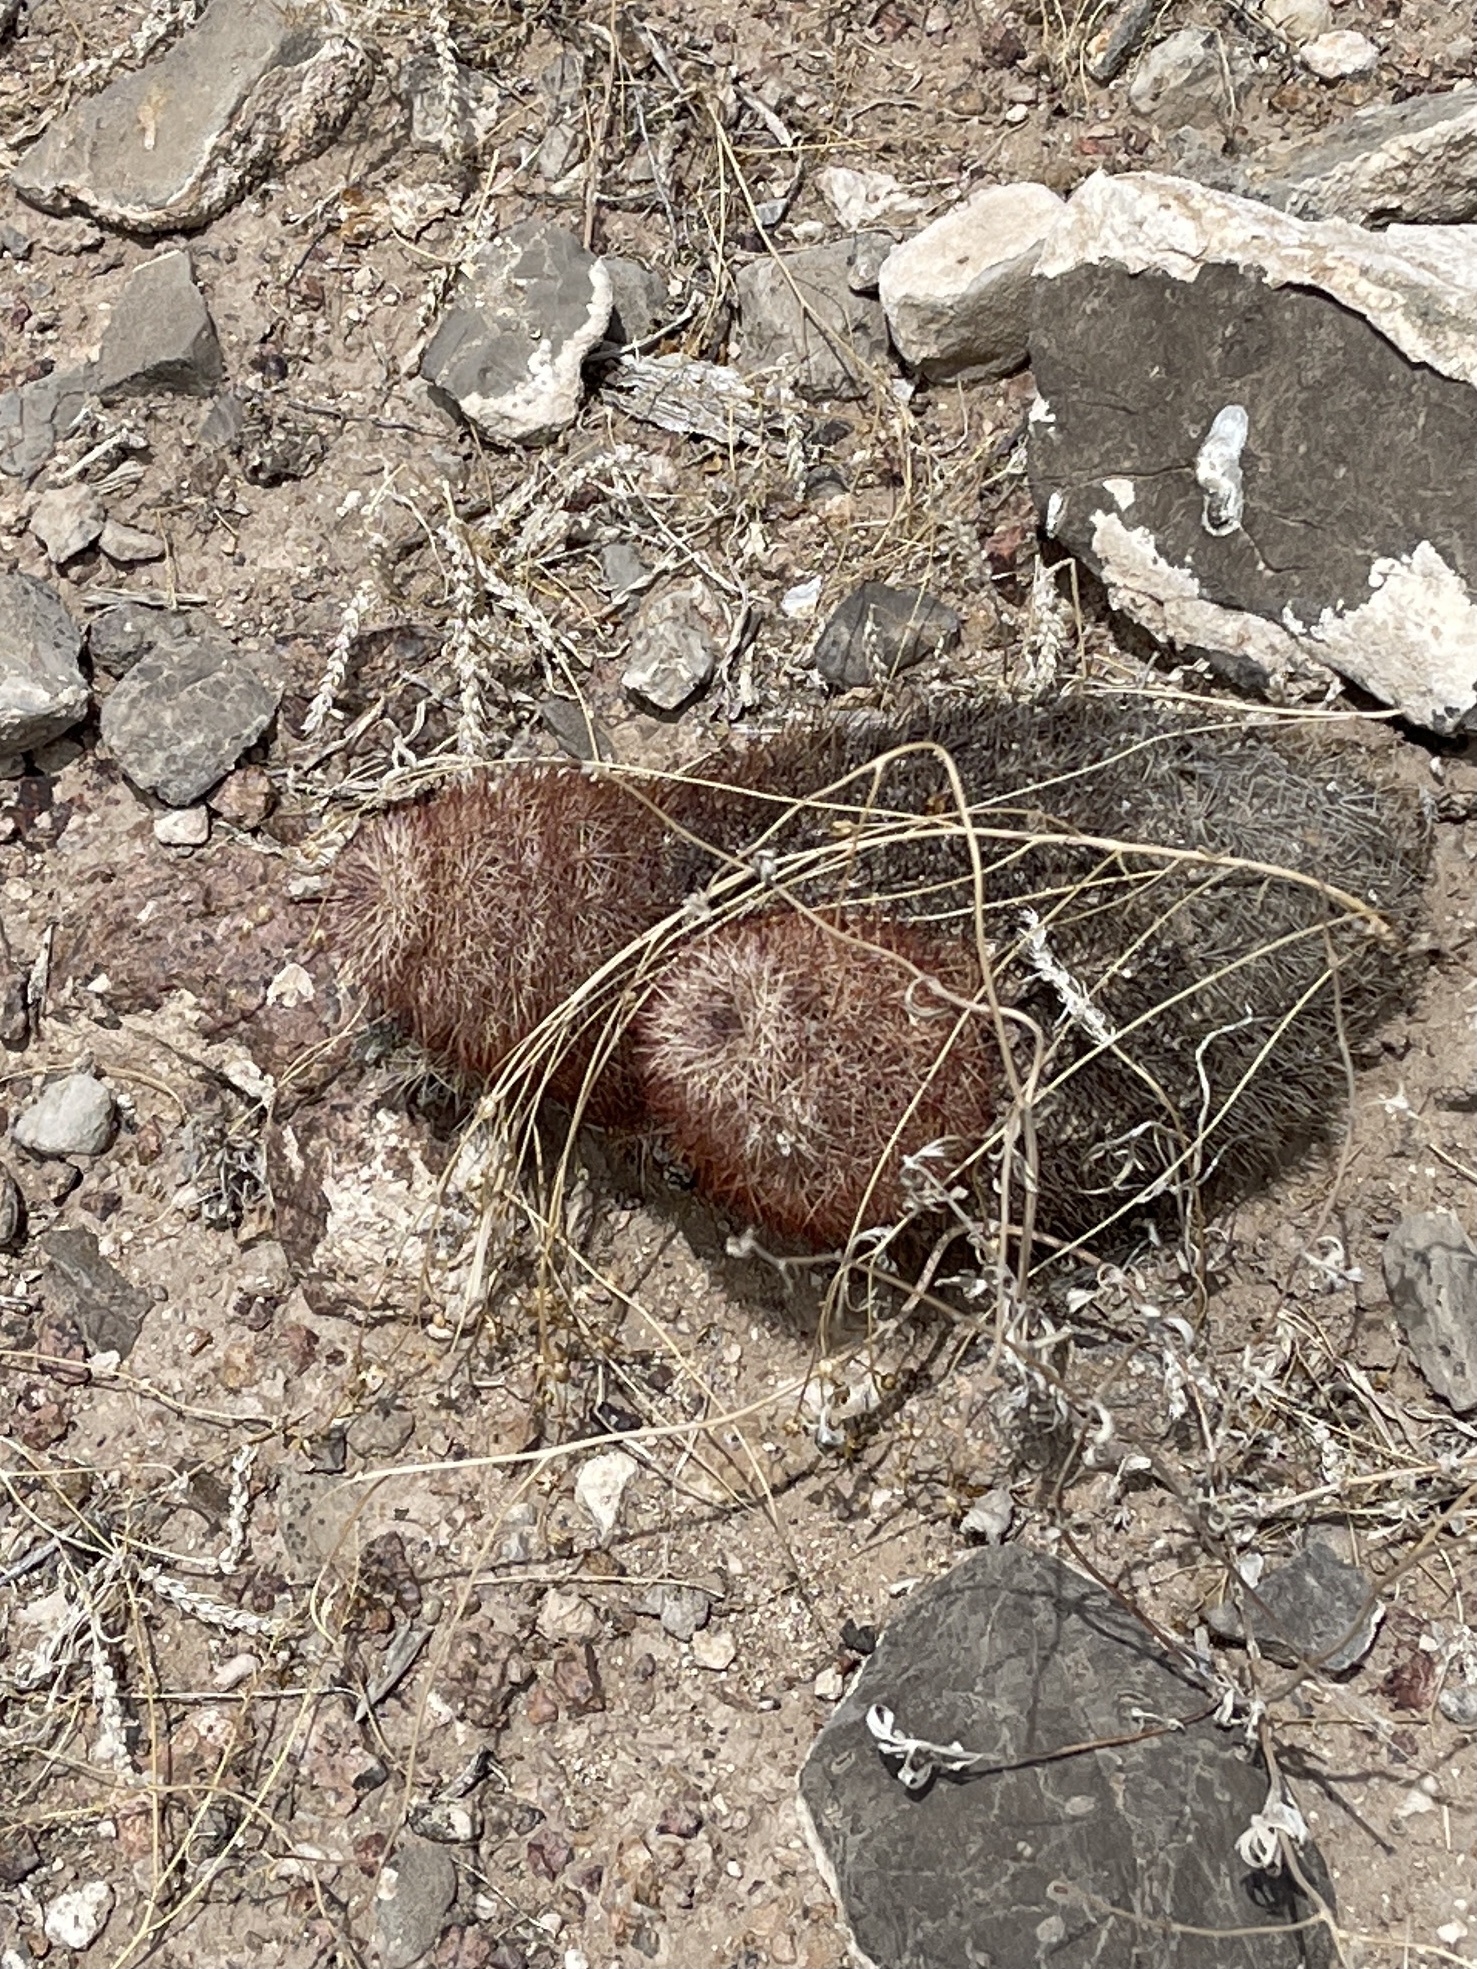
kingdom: Plantae
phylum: Tracheophyta
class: Magnoliopsida
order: Caryophyllales
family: Cactaceae
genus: Echinocereus
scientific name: Echinocereus dasyacanthus
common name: Spiny hedgehog cactus
